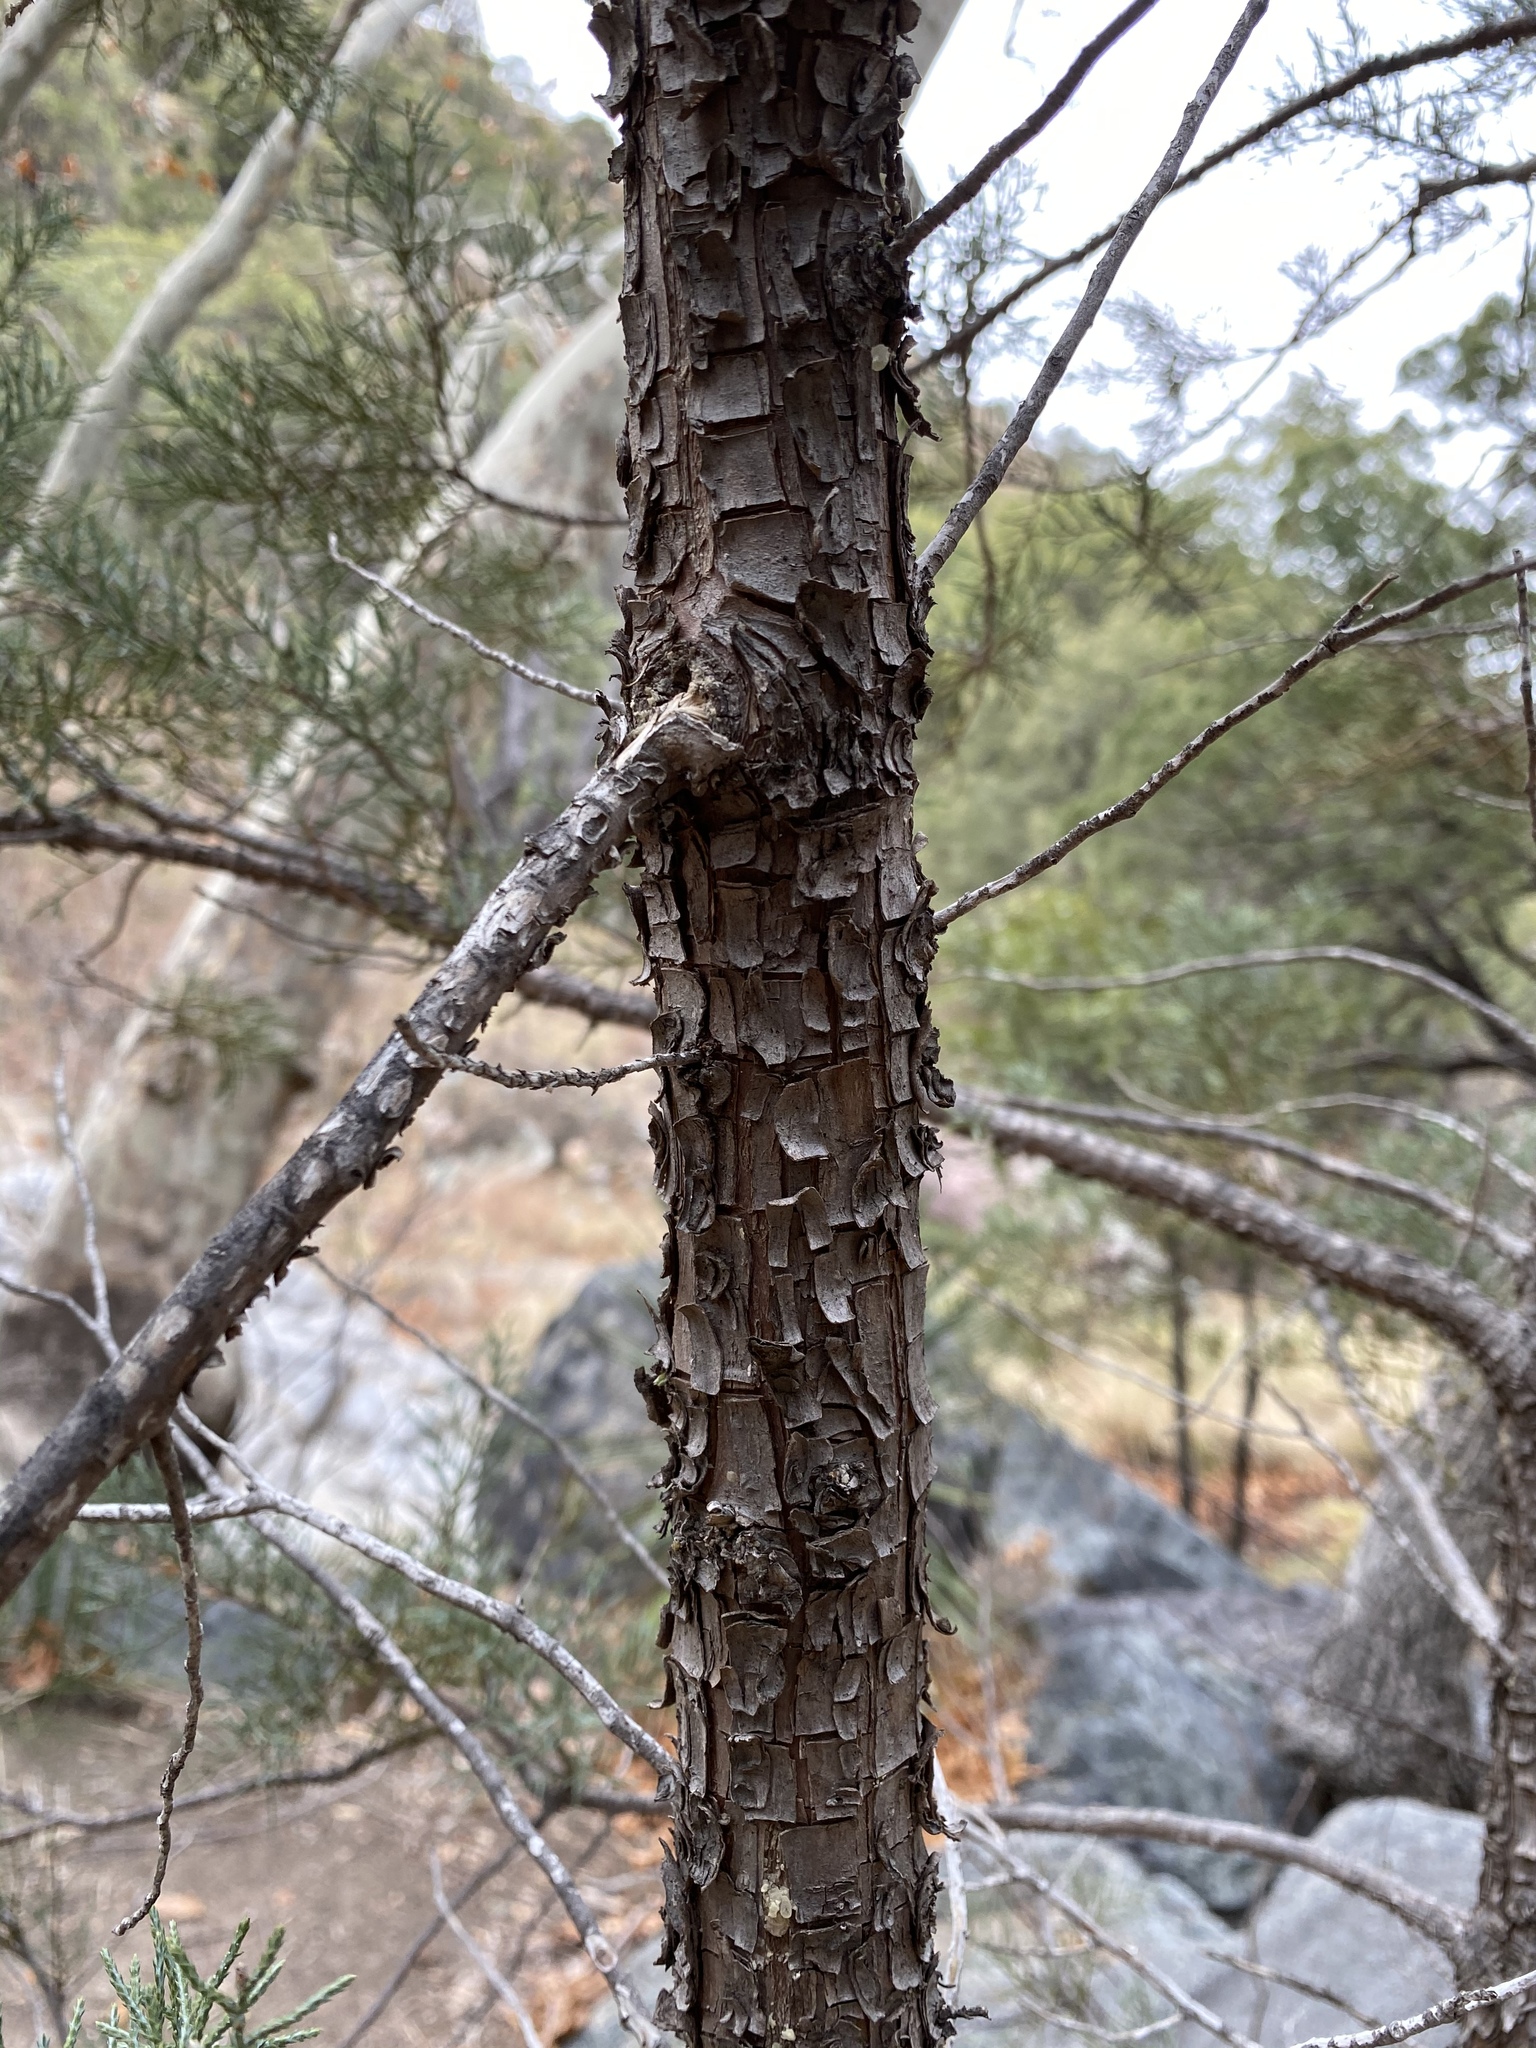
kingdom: Plantae
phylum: Tracheophyta
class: Pinopsida
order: Pinales
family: Cupressaceae
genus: Juniperus
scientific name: Juniperus deppeana
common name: Alligator juniper
